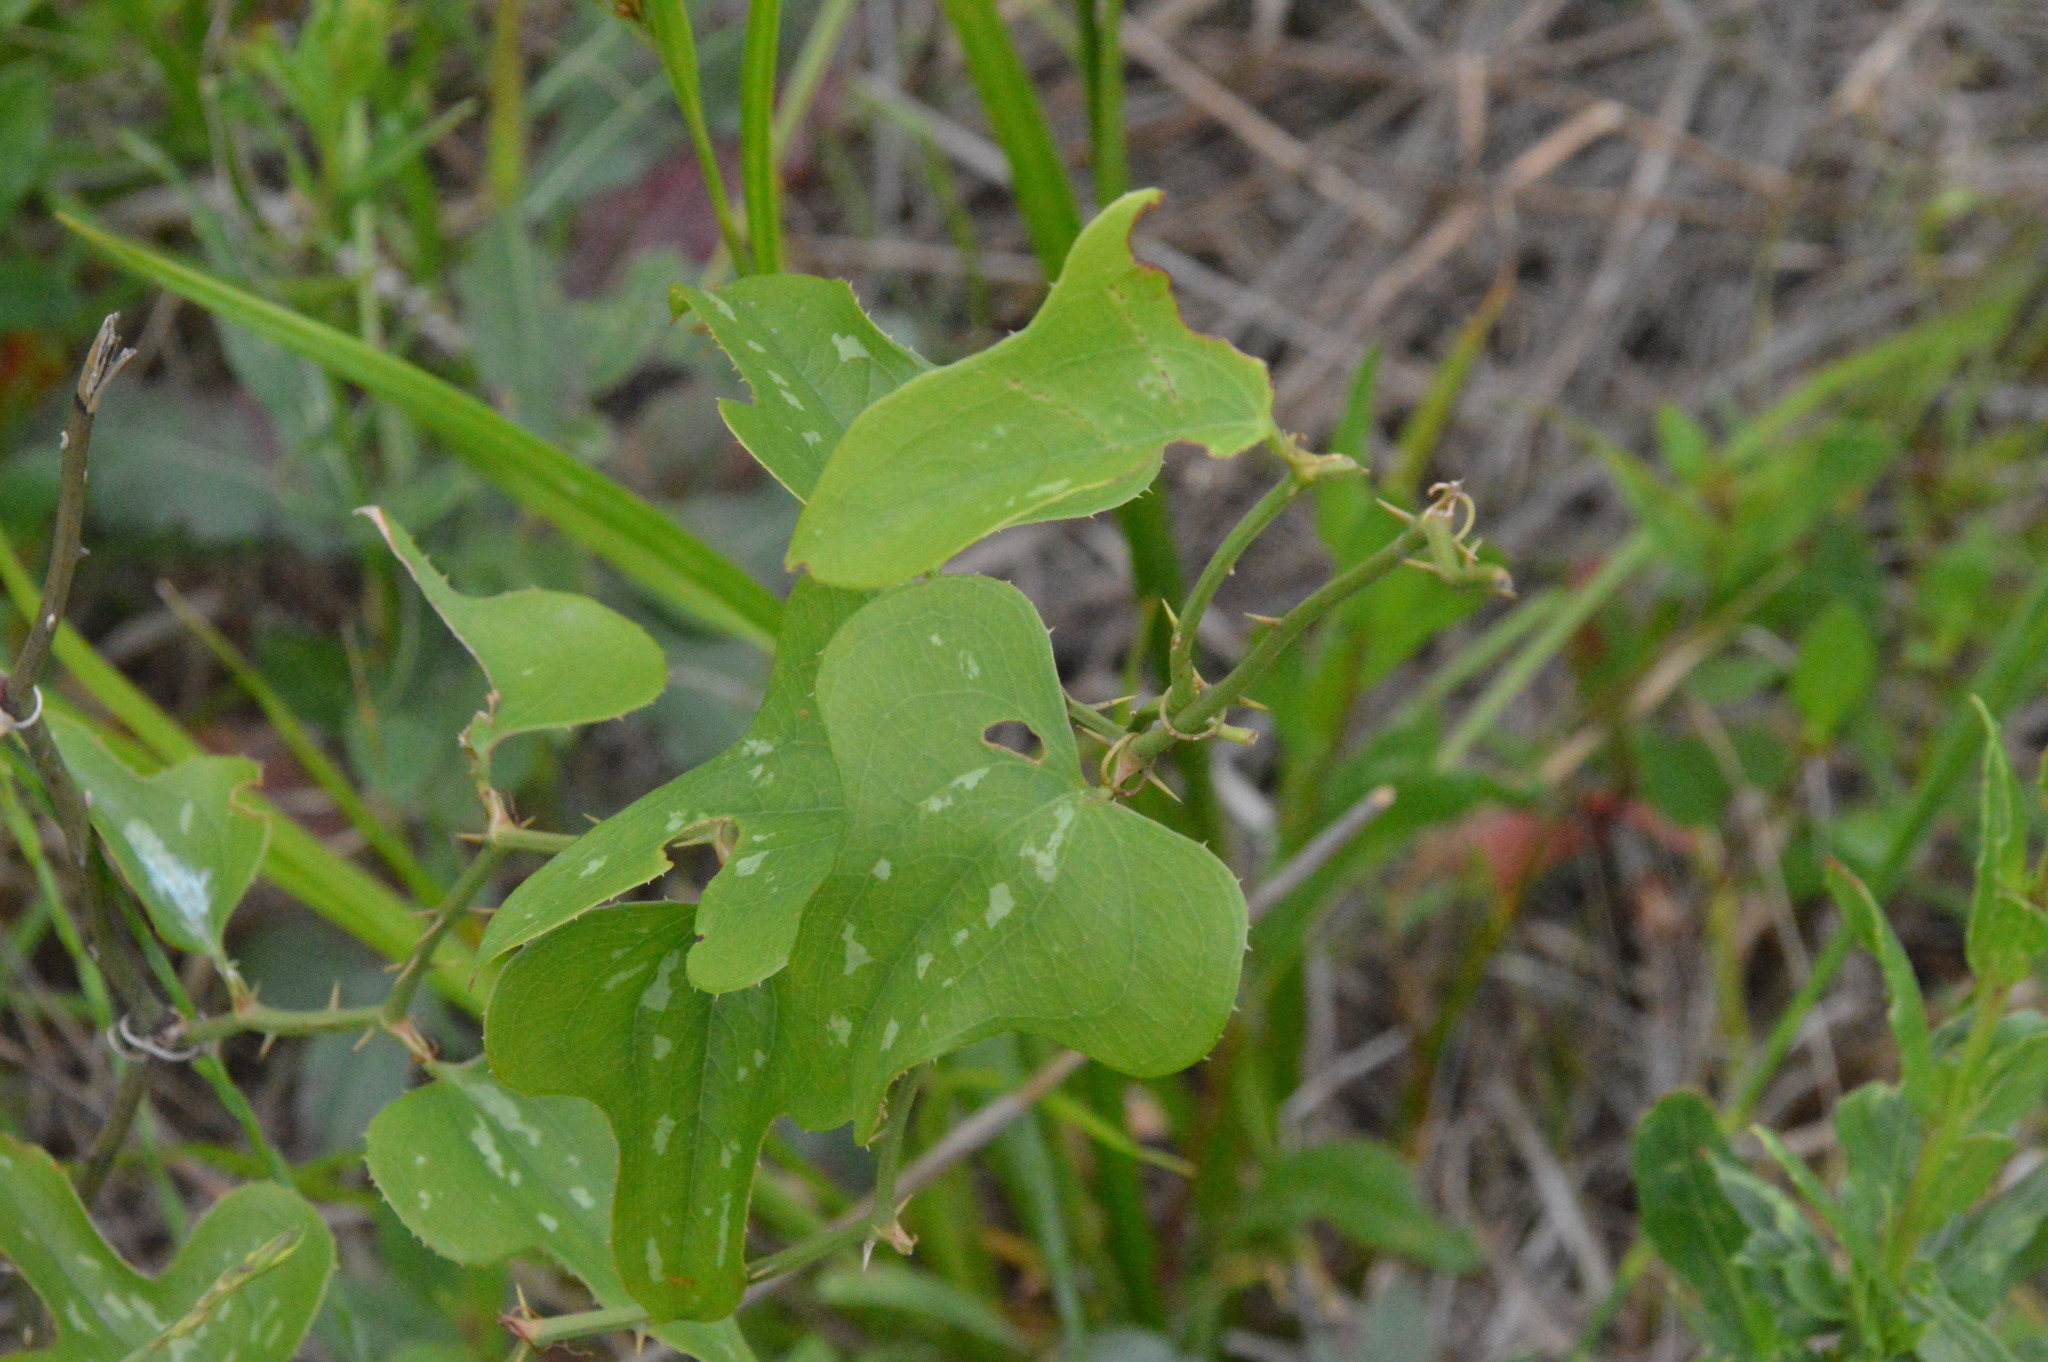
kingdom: Plantae
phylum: Tracheophyta
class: Liliopsida
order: Liliales
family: Smilacaceae
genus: Smilax
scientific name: Smilax bona-nox
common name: Catbrier
